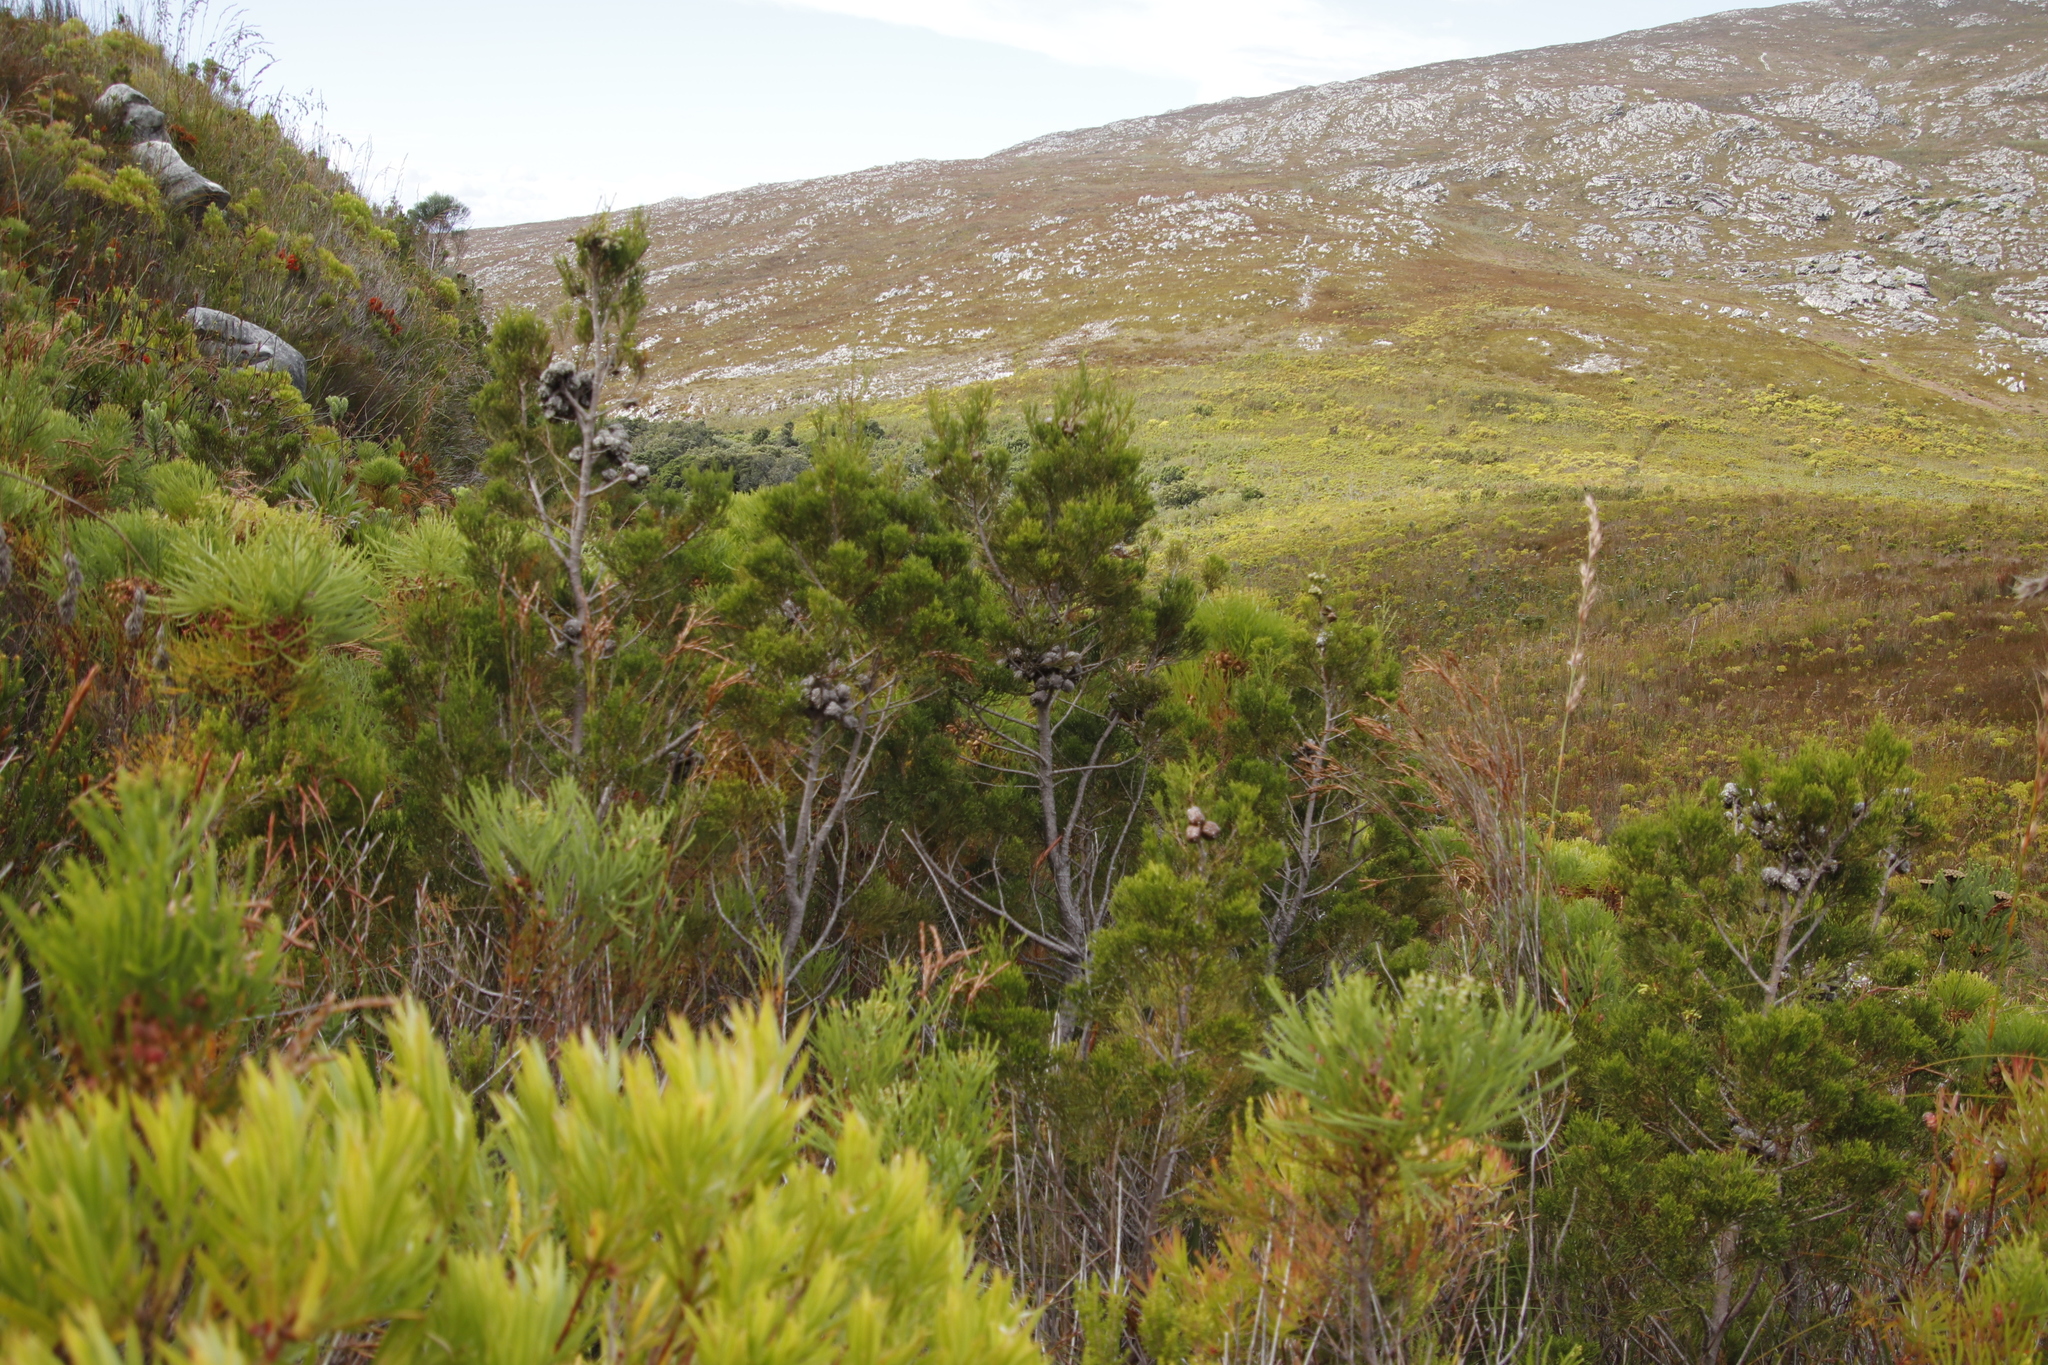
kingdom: Plantae
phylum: Tracheophyta
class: Pinopsida
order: Pinales
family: Cupressaceae
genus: Widdringtonia
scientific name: Widdringtonia nodiflora
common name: Cape cypress
